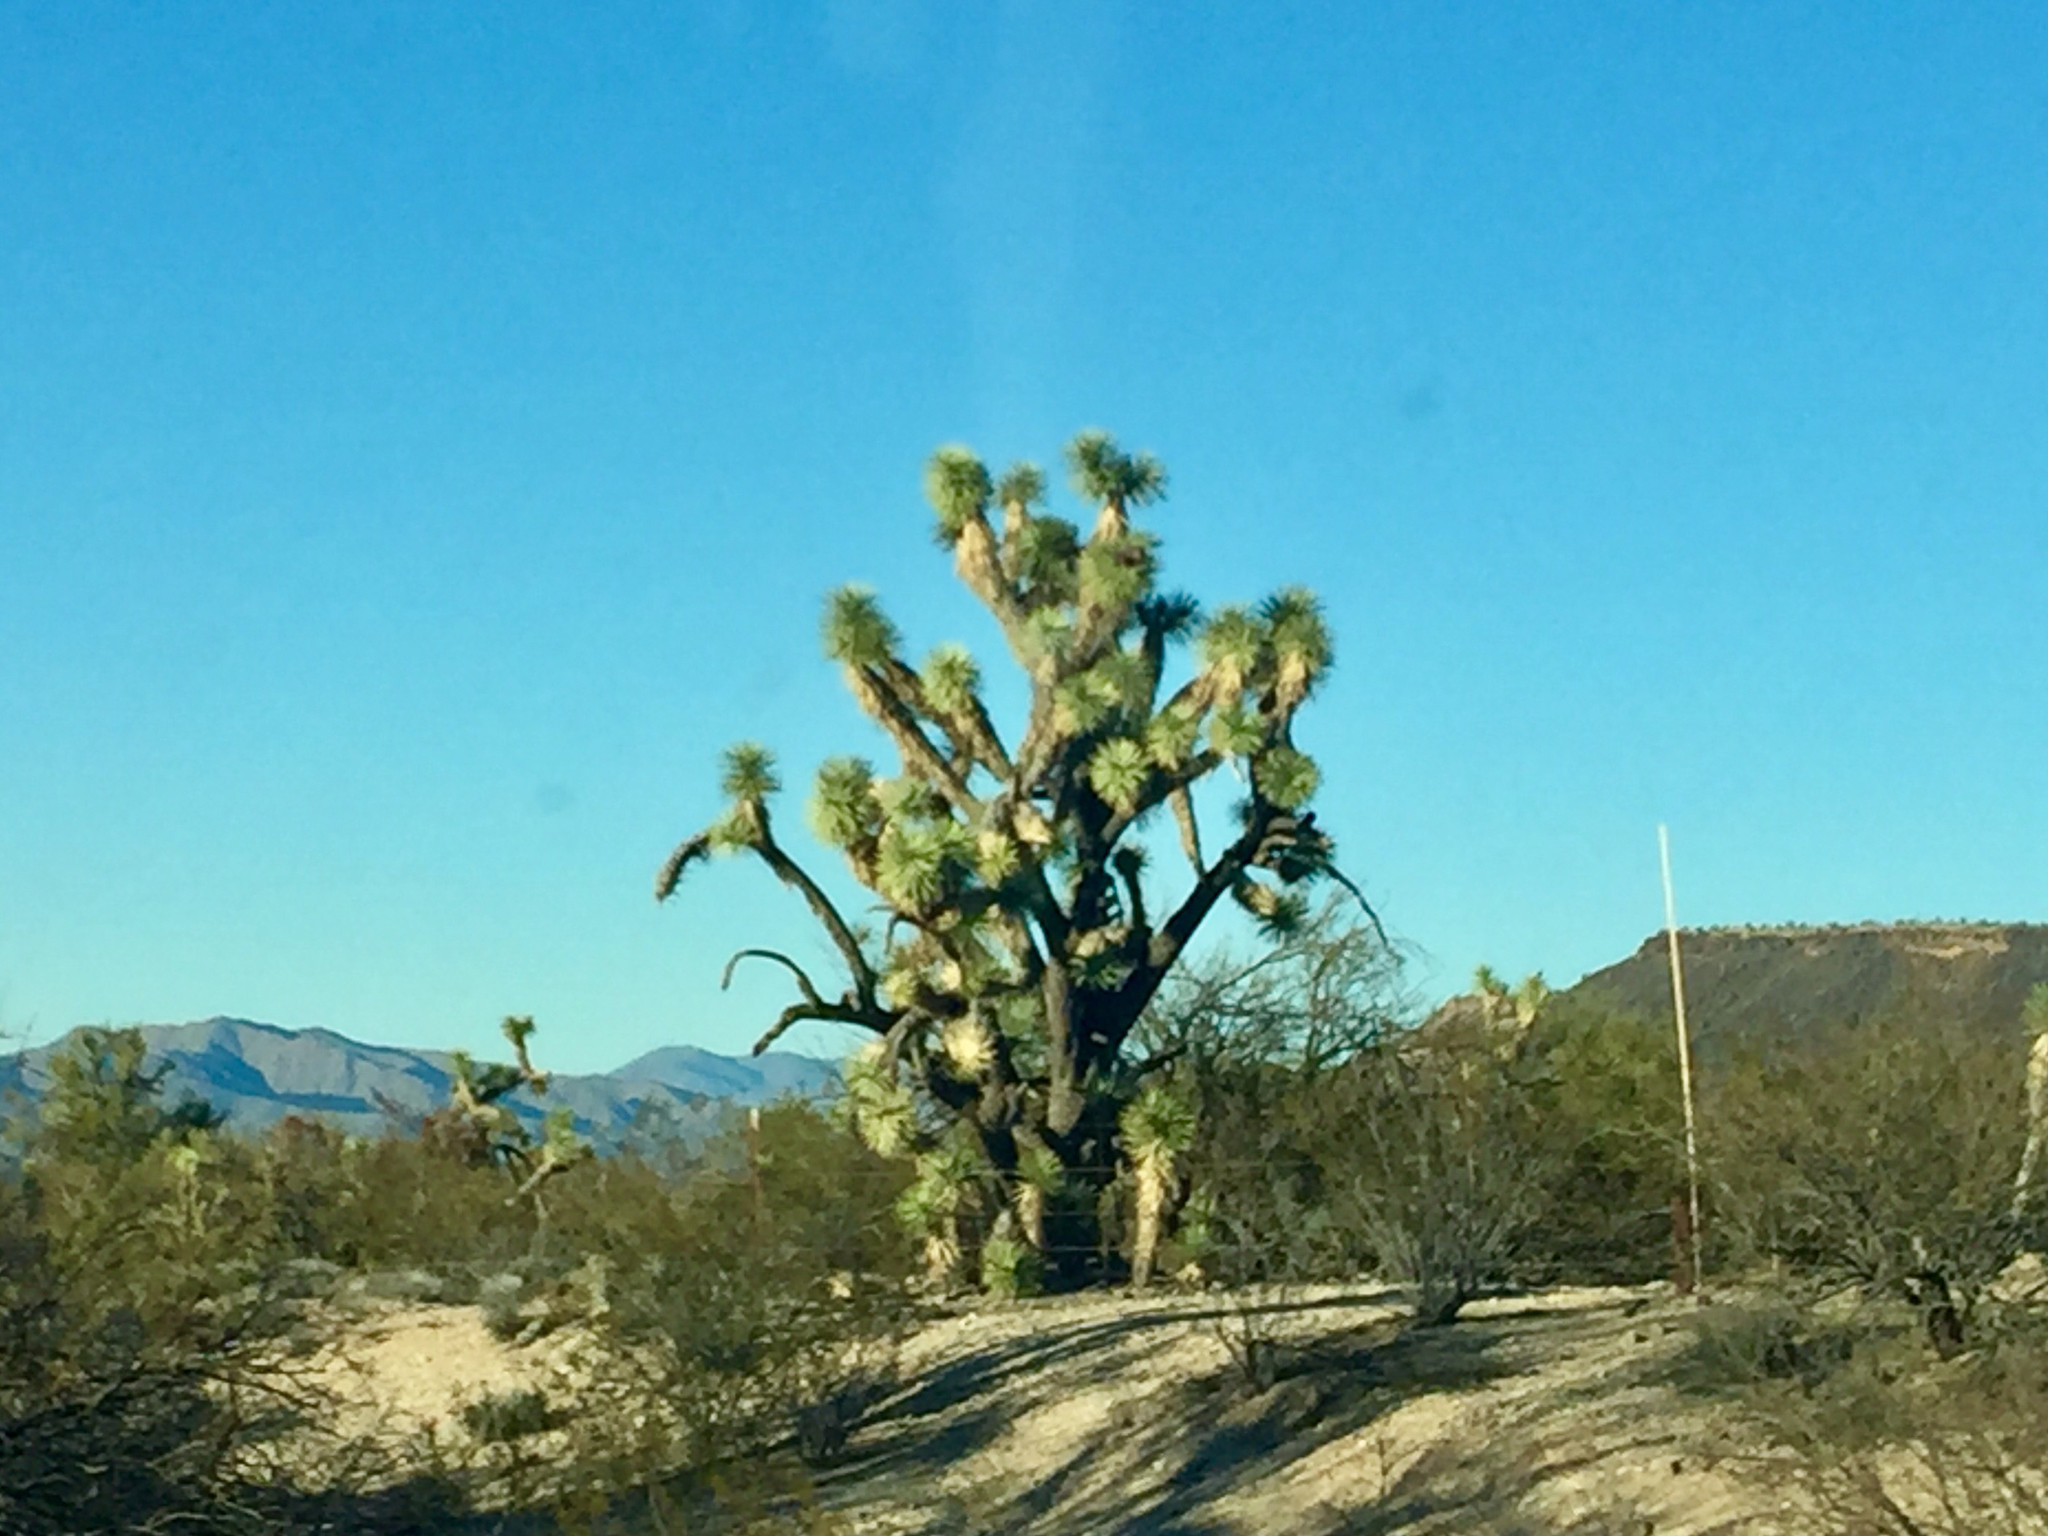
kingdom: Plantae
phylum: Tracheophyta
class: Liliopsida
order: Asparagales
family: Asparagaceae
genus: Yucca
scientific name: Yucca brevifolia
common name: Joshua tree
